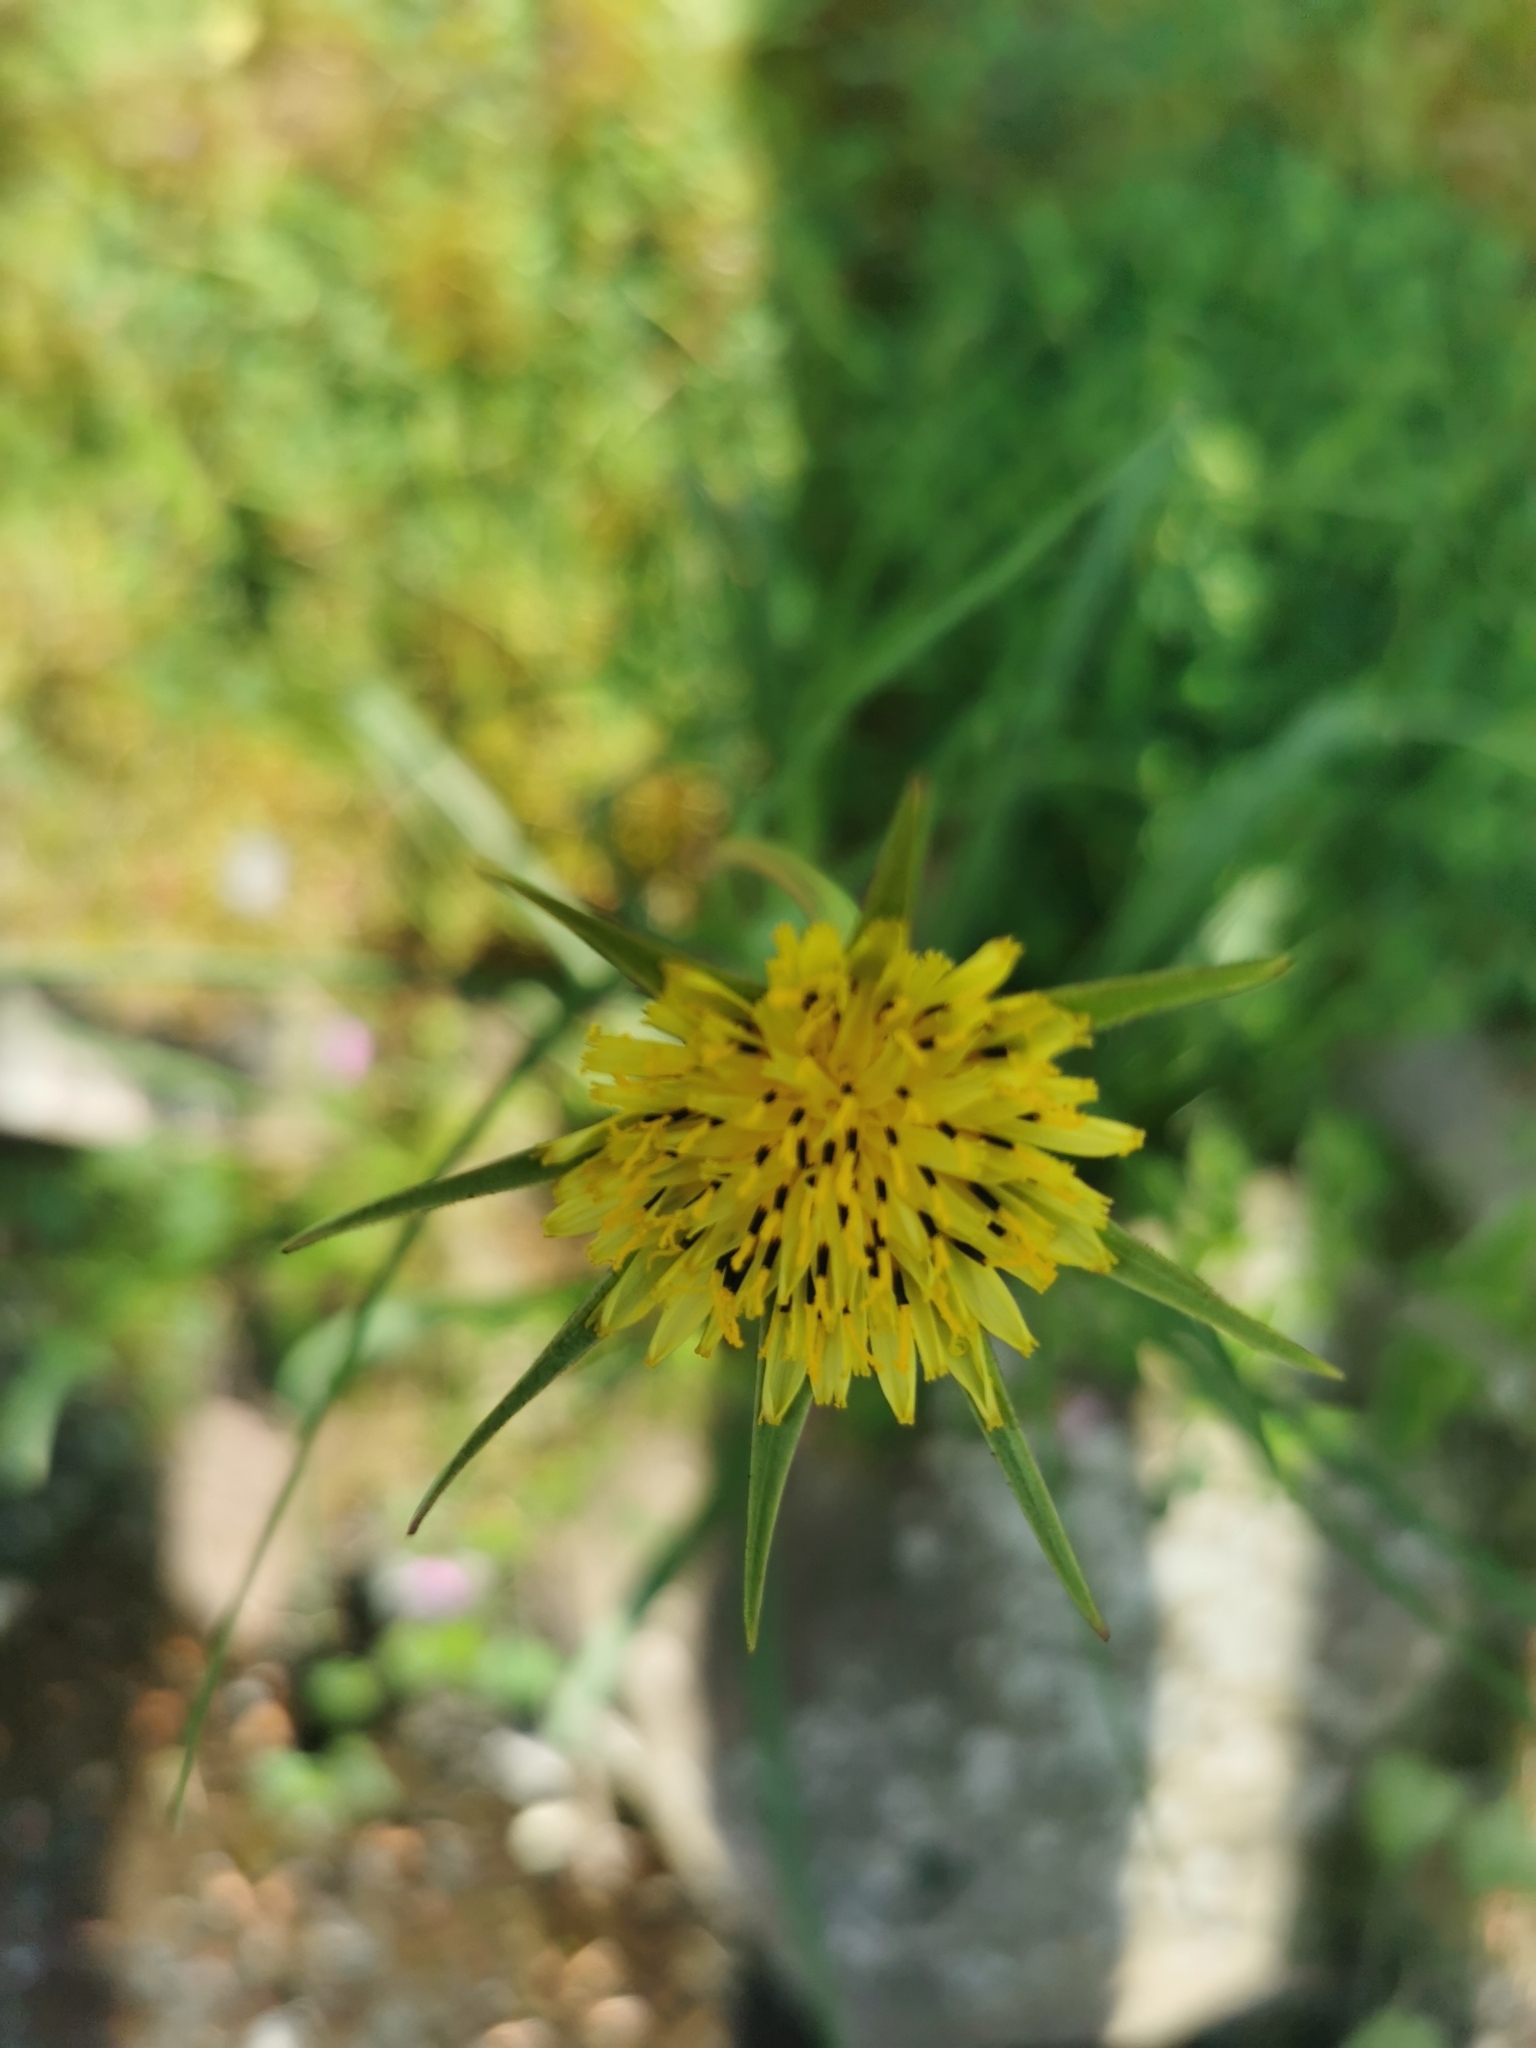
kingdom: Plantae
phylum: Tracheophyta
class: Magnoliopsida
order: Asterales
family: Asteraceae
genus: Tragopogon
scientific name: Tragopogon pratensis
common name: Goat's-beard
